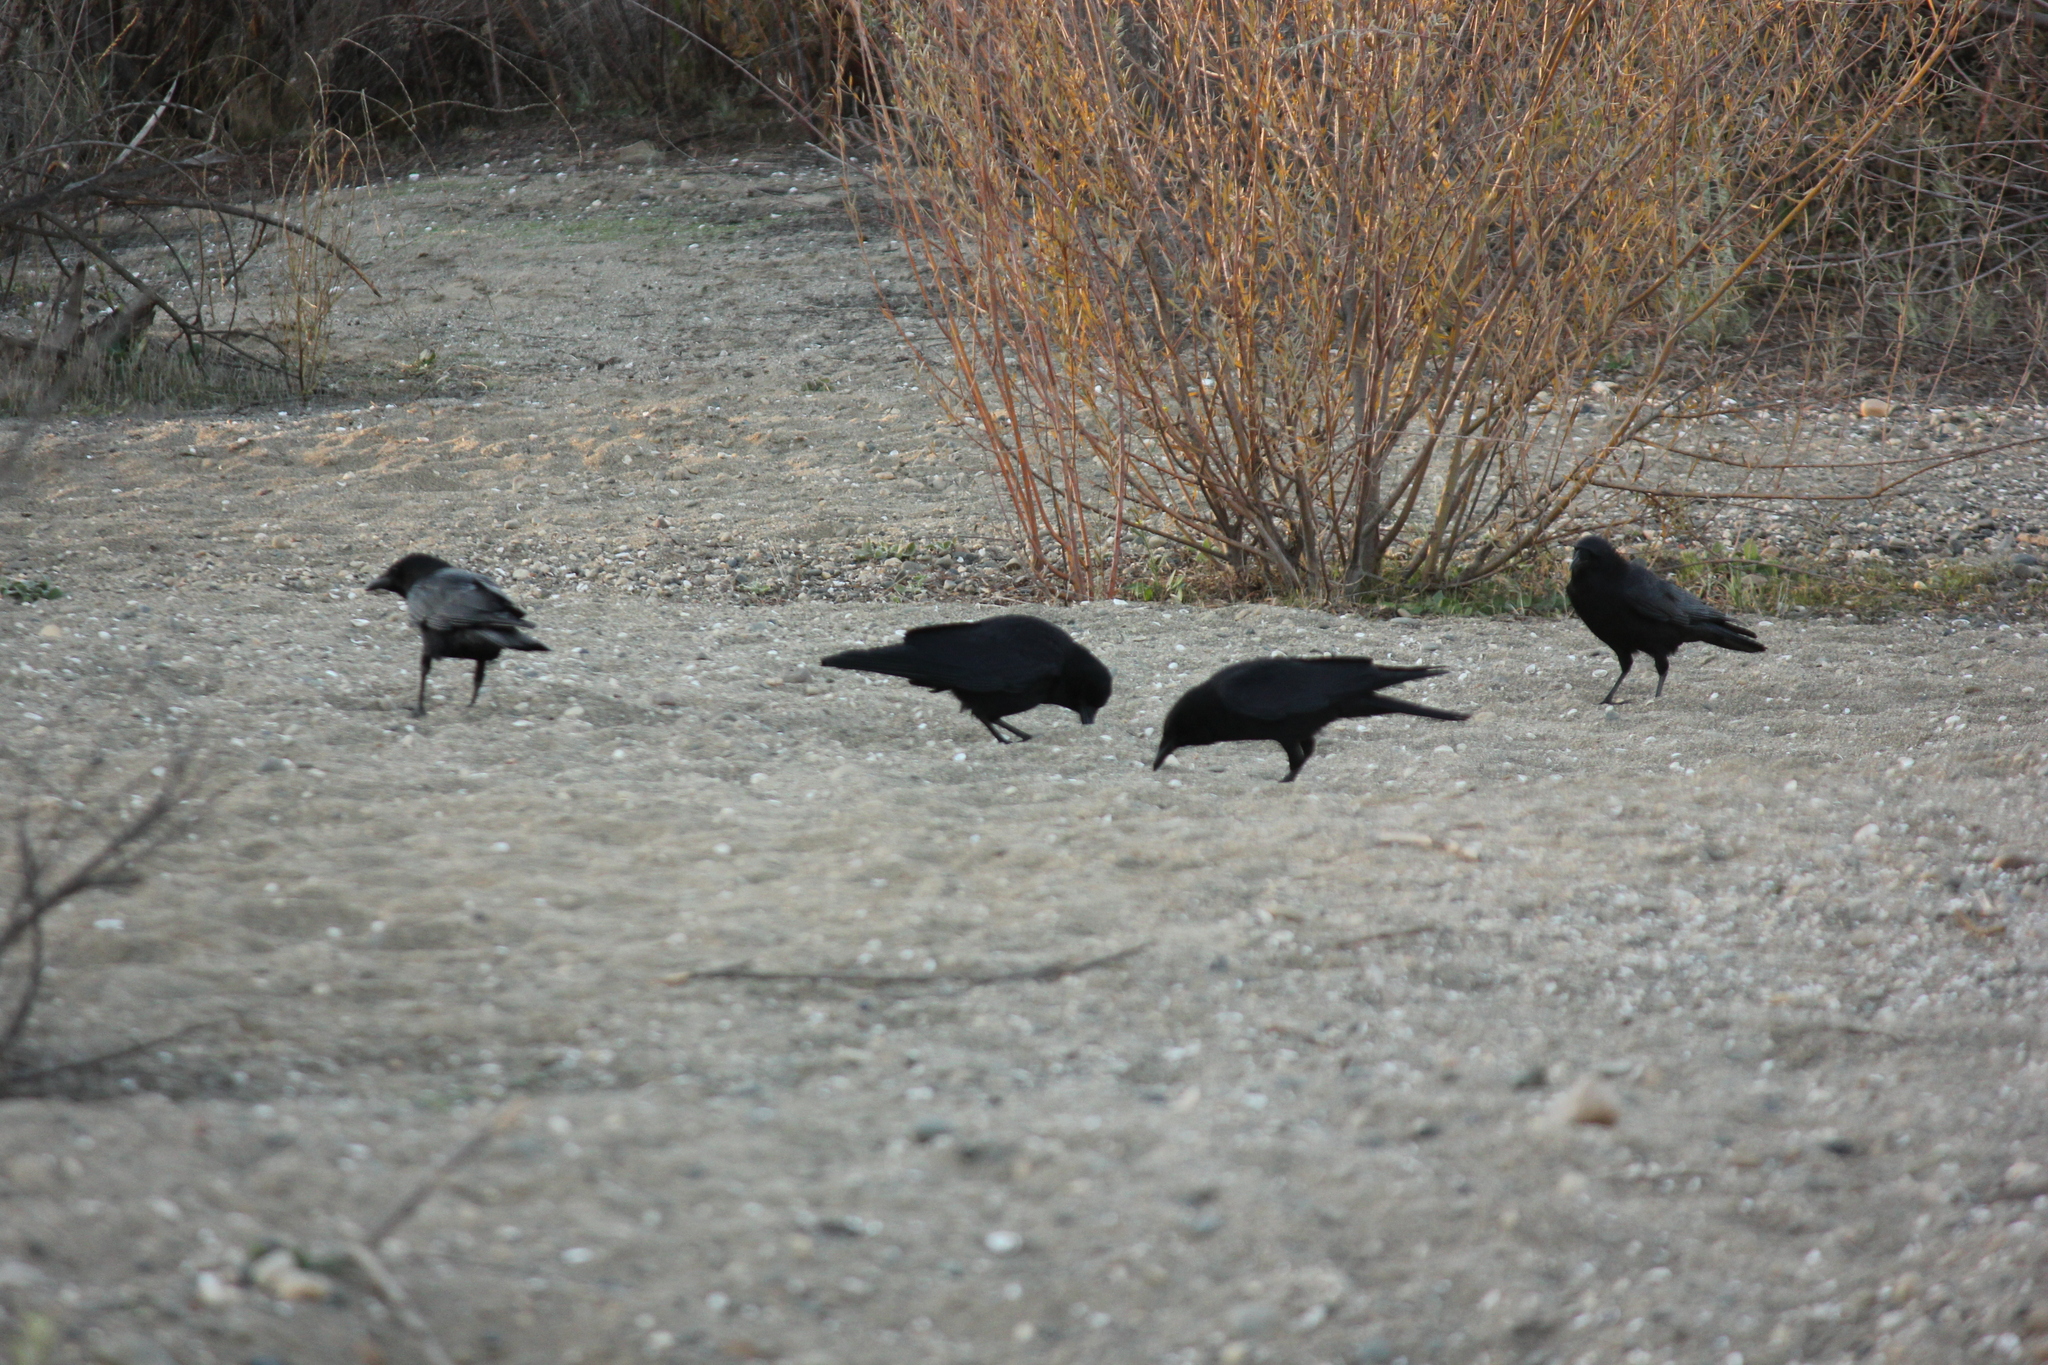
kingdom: Animalia
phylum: Chordata
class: Aves
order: Passeriformes
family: Corvidae
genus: Corvus
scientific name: Corvus brachyrhynchos
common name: American crow
